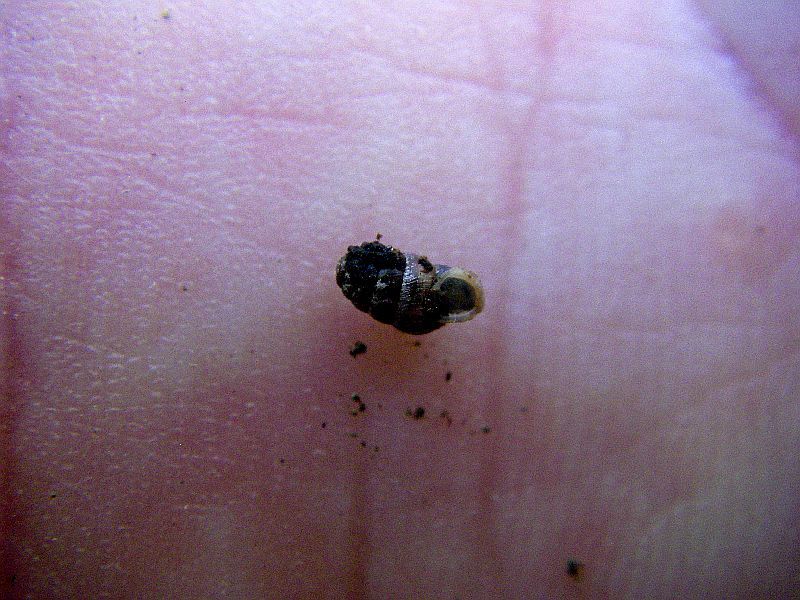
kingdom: Animalia
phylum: Mollusca
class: Gastropoda
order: Stylommatophora
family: Lauriidae
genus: Lauria
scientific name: Lauria cylindracea
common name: Common chrysalis snail
